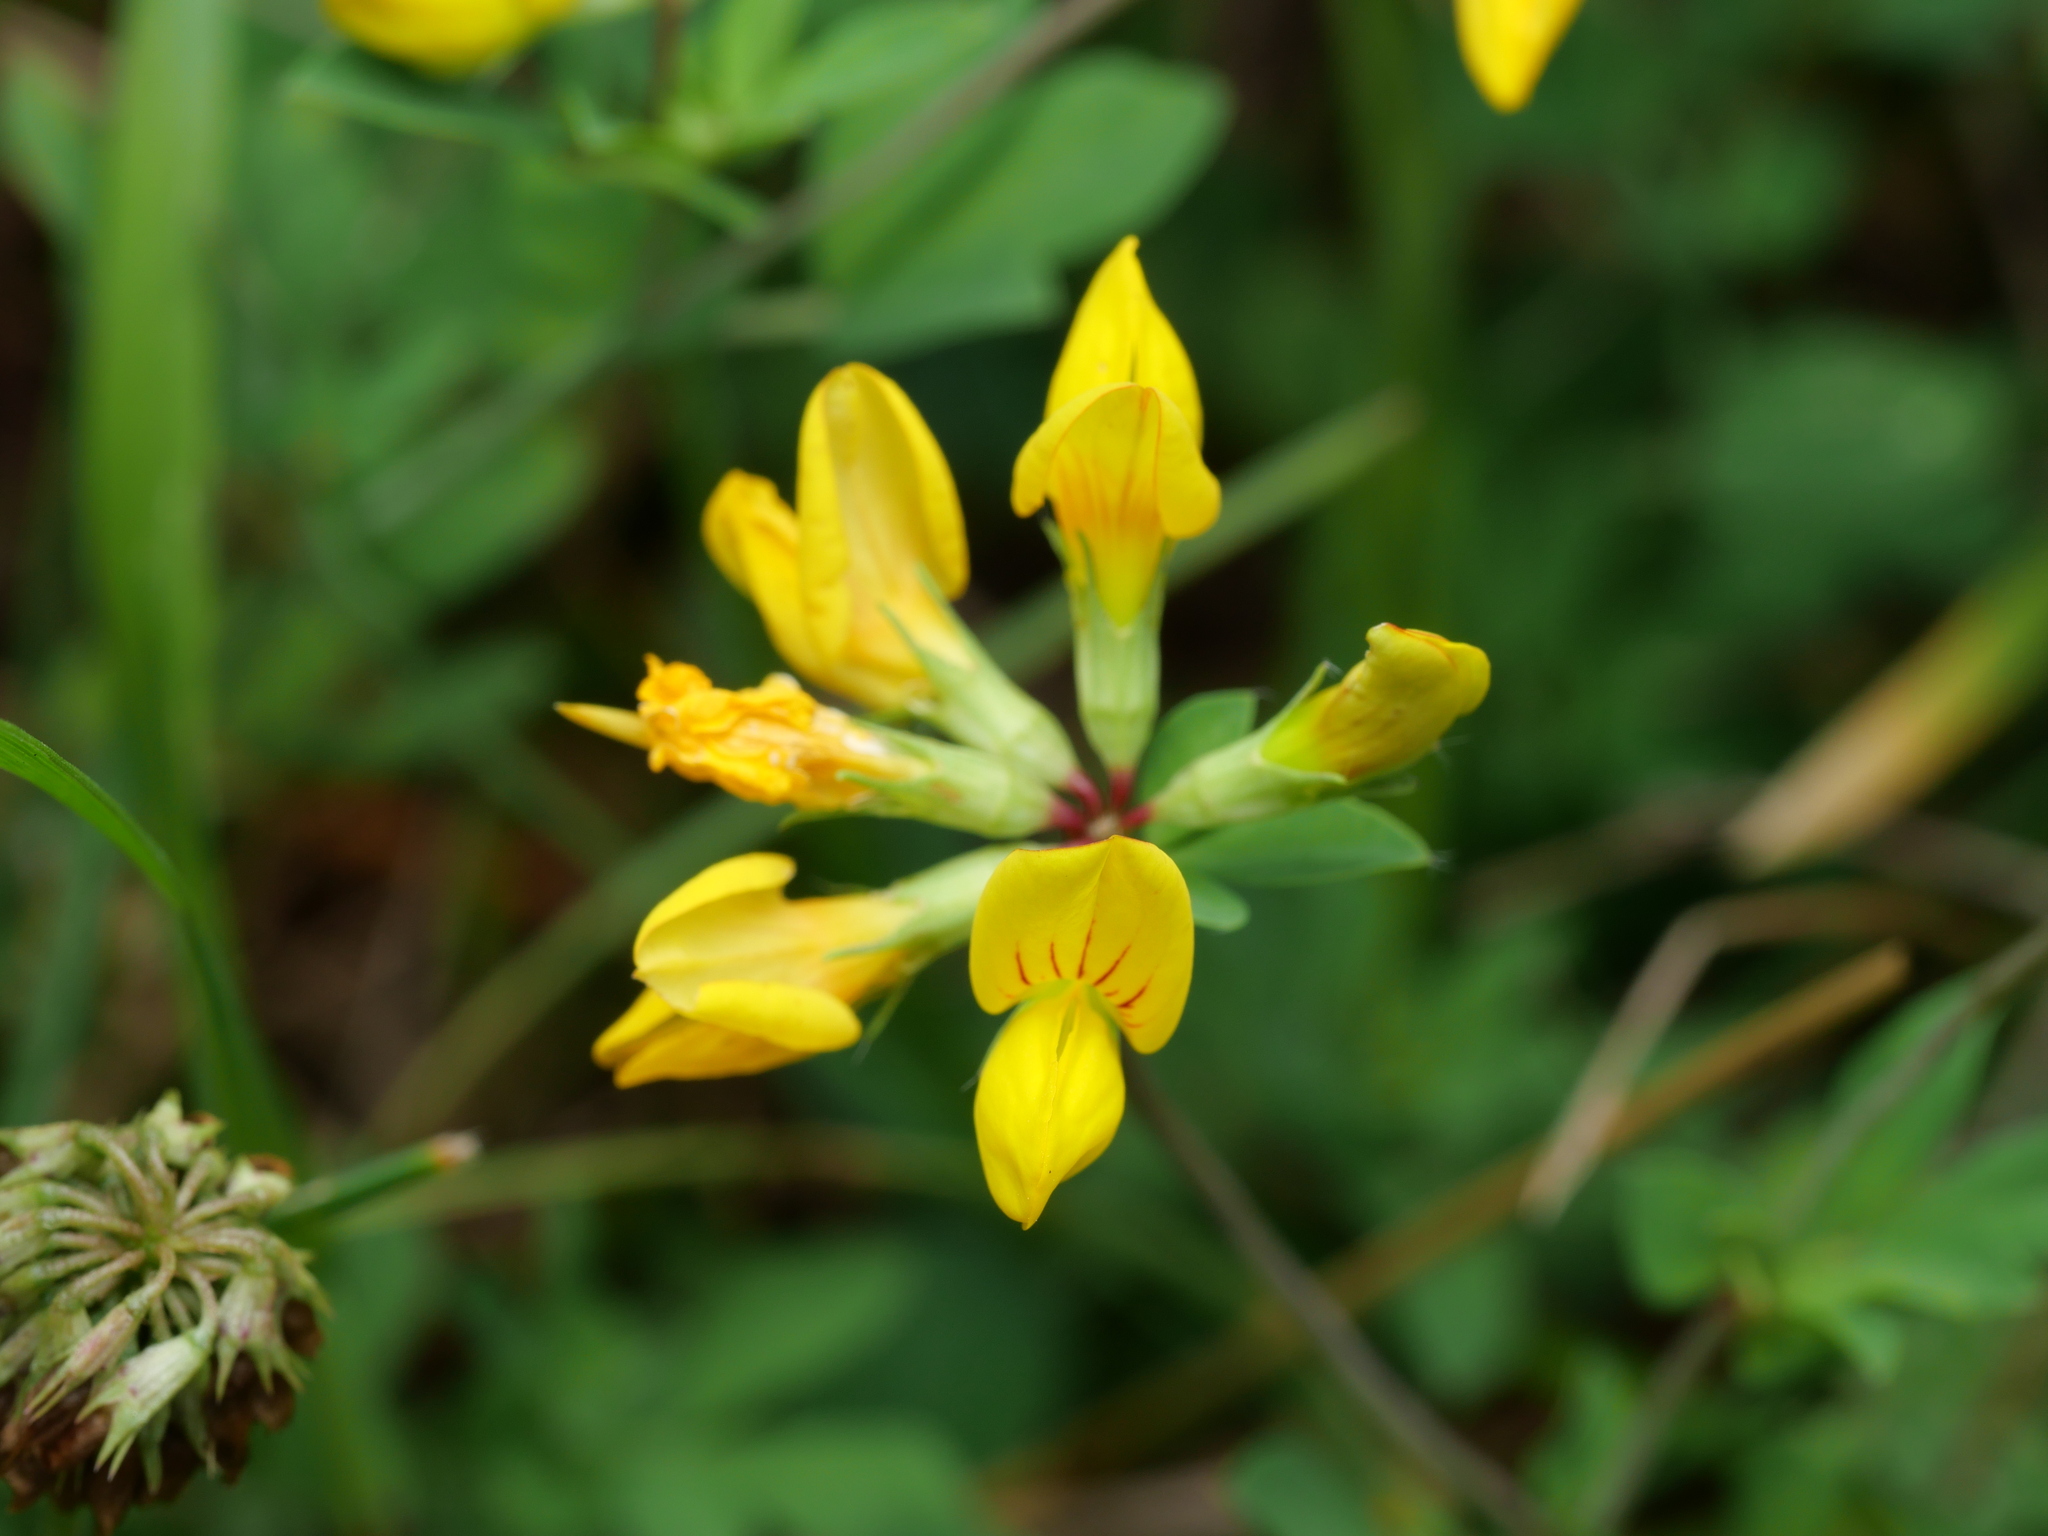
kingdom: Plantae
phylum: Tracheophyta
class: Magnoliopsida
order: Fabales
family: Fabaceae
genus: Lotus
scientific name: Lotus corniculatus
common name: Common bird's-foot-trefoil
